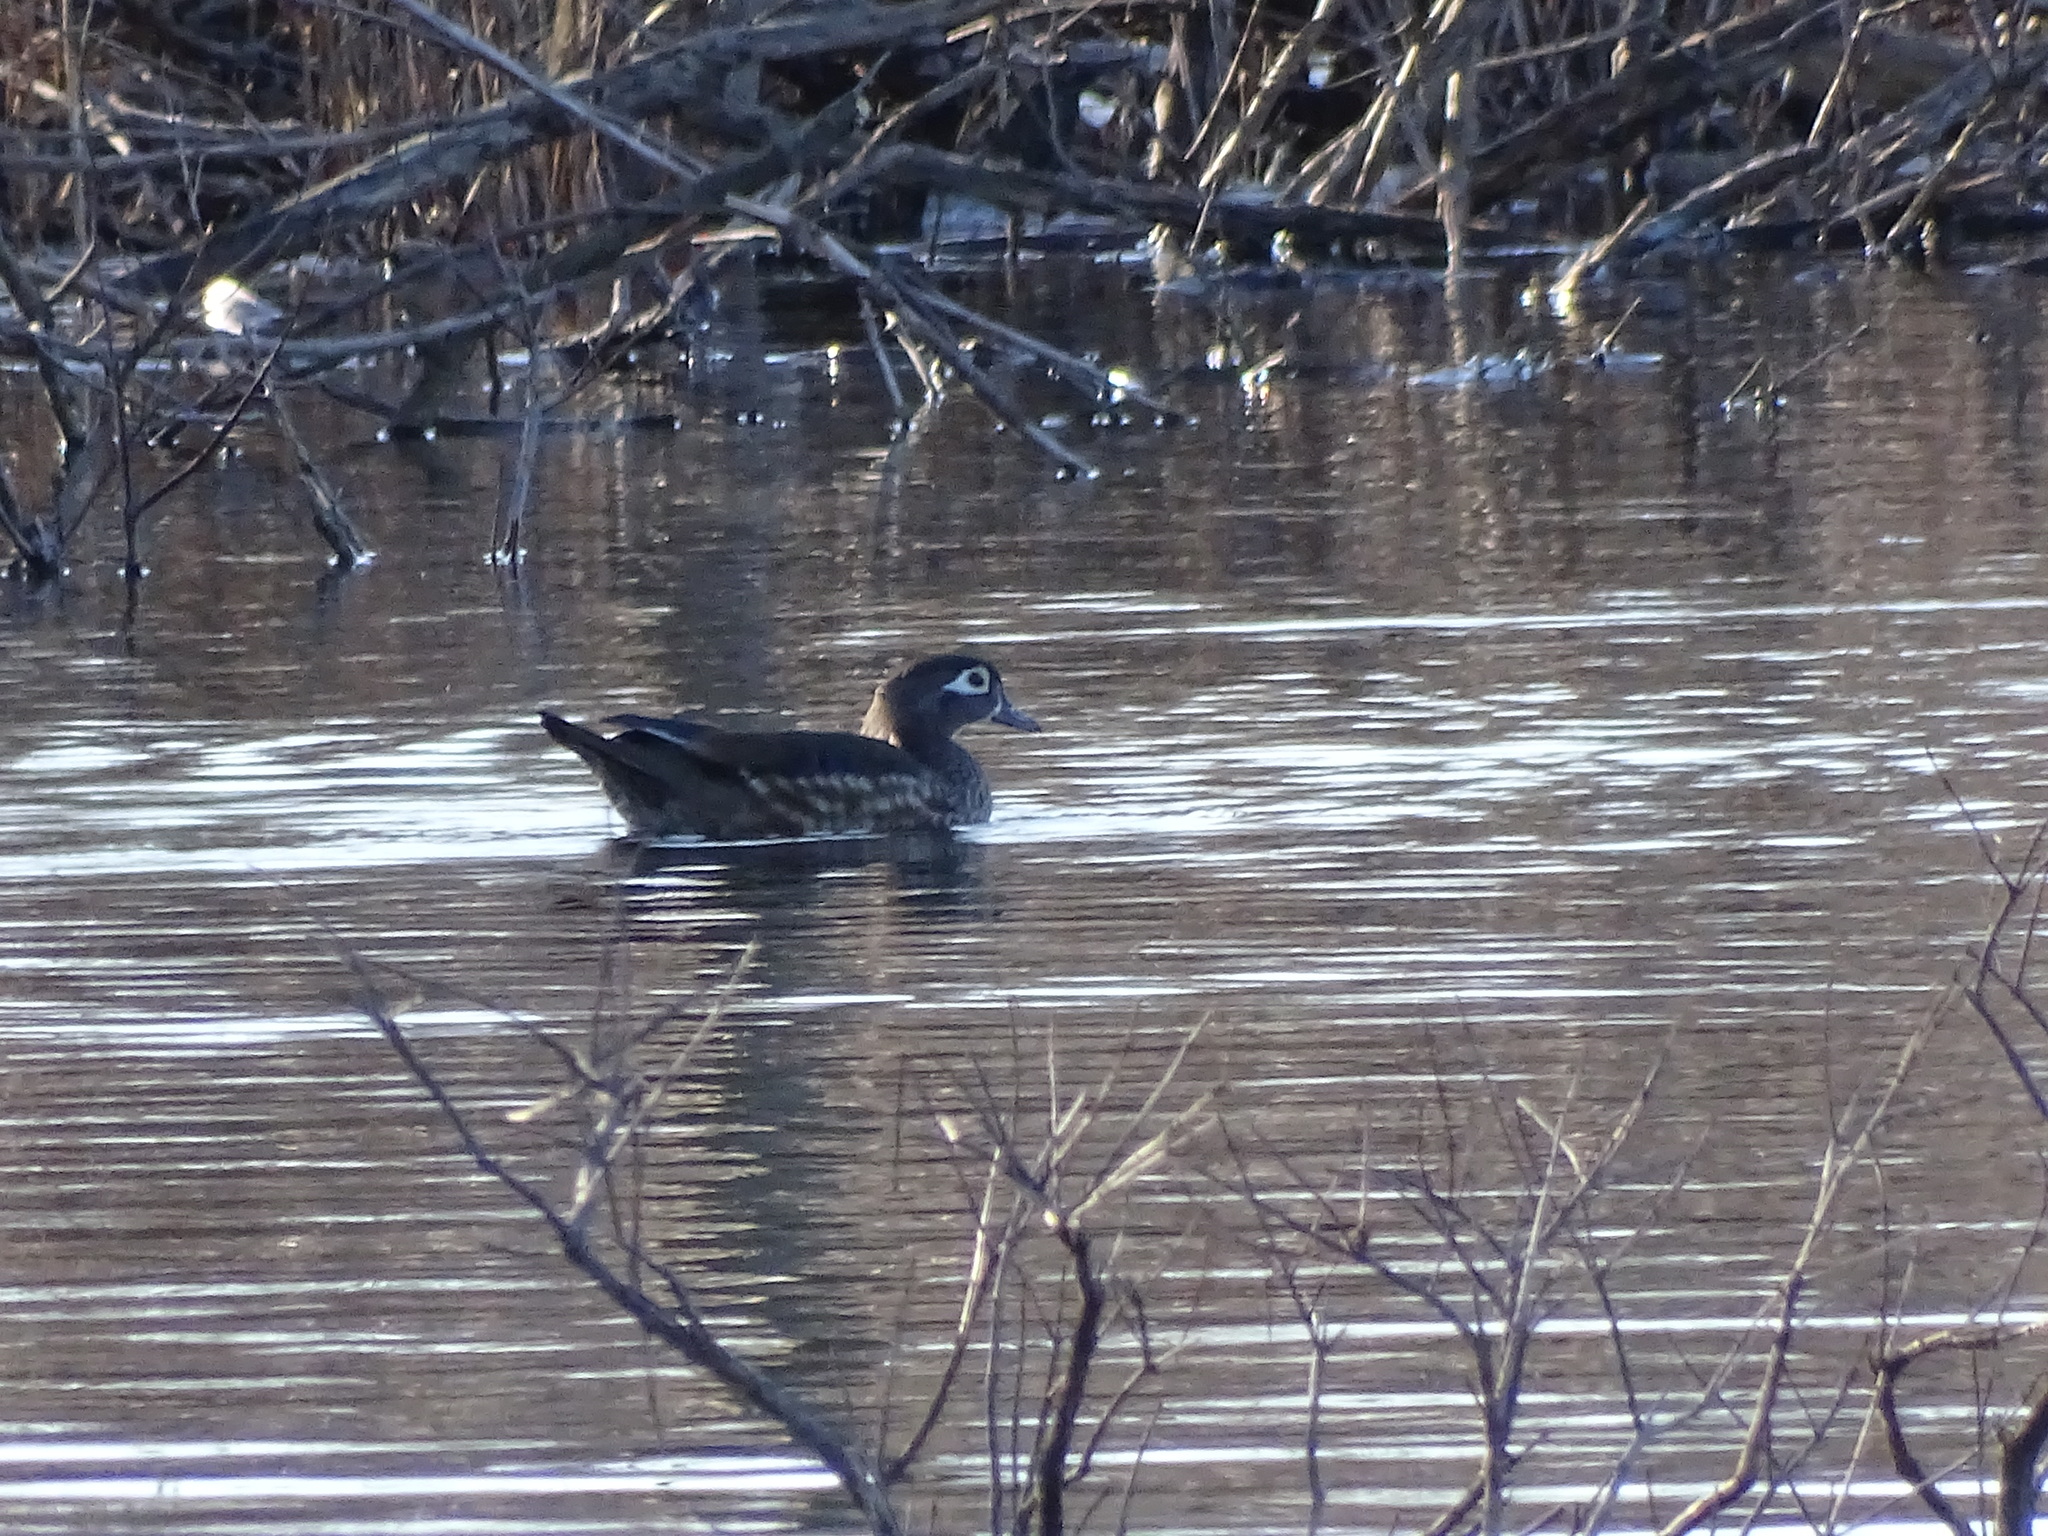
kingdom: Animalia
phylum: Chordata
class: Aves
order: Anseriformes
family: Anatidae
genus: Aix
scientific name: Aix sponsa
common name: Wood duck
